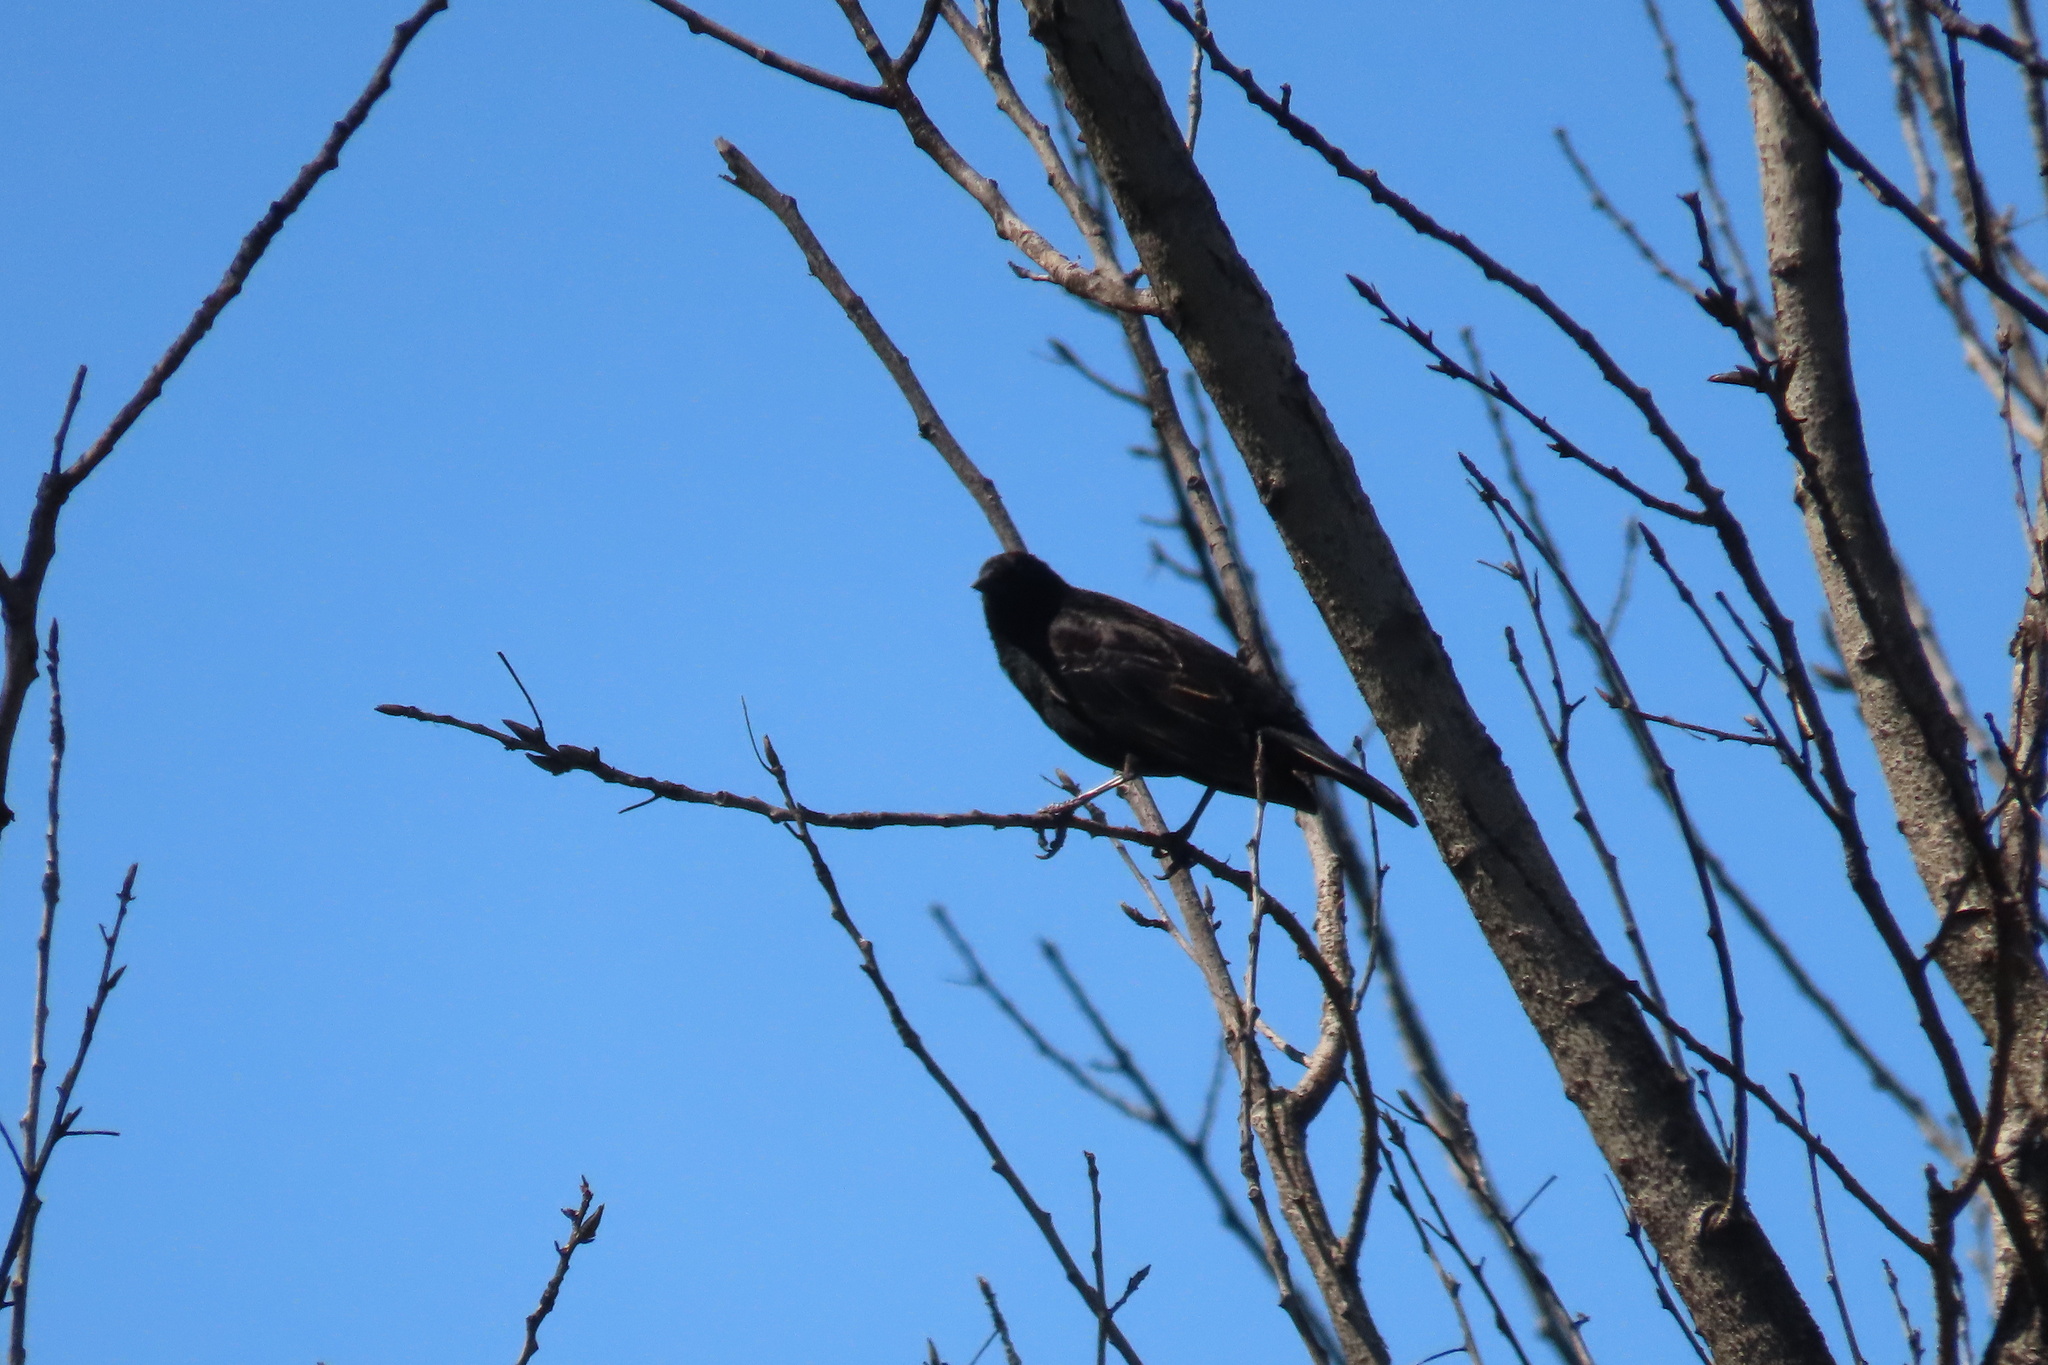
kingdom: Animalia
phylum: Chordata
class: Aves
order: Passeriformes
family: Icteridae
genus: Agelaius
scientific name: Agelaius phoeniceus
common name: Red-winged blackbird
